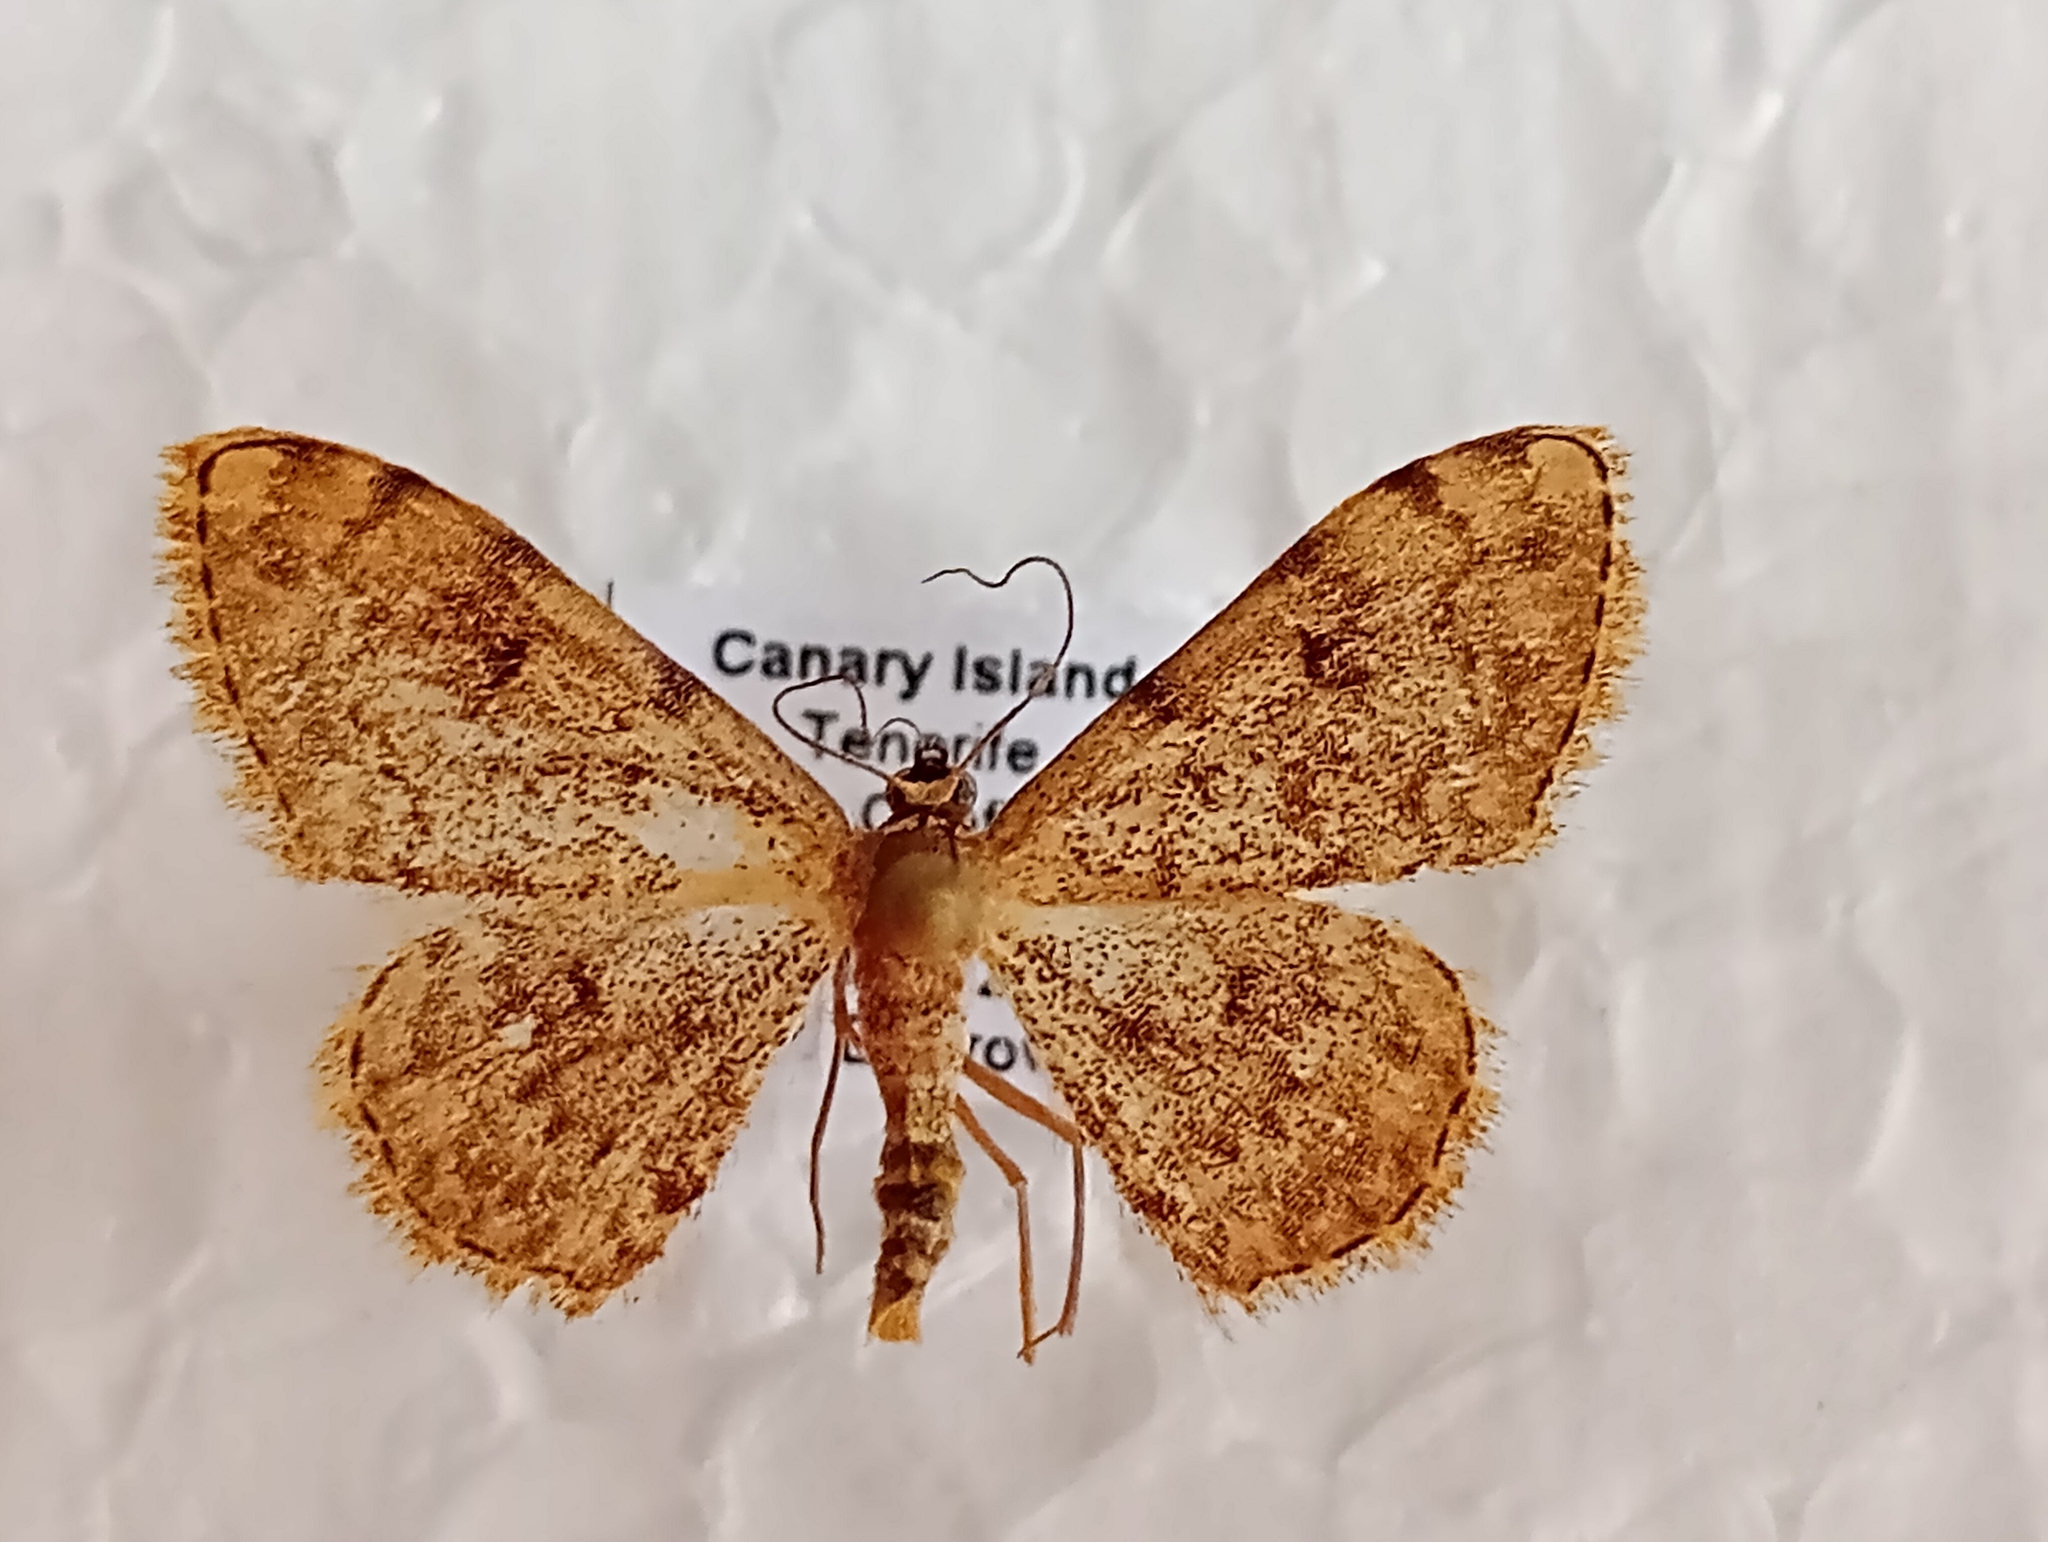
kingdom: Animalia
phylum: Arthropoda
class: Insecta
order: Lepidoptera
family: Geometridae
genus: Glossotrophia
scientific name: Glossotrophia asellaria
